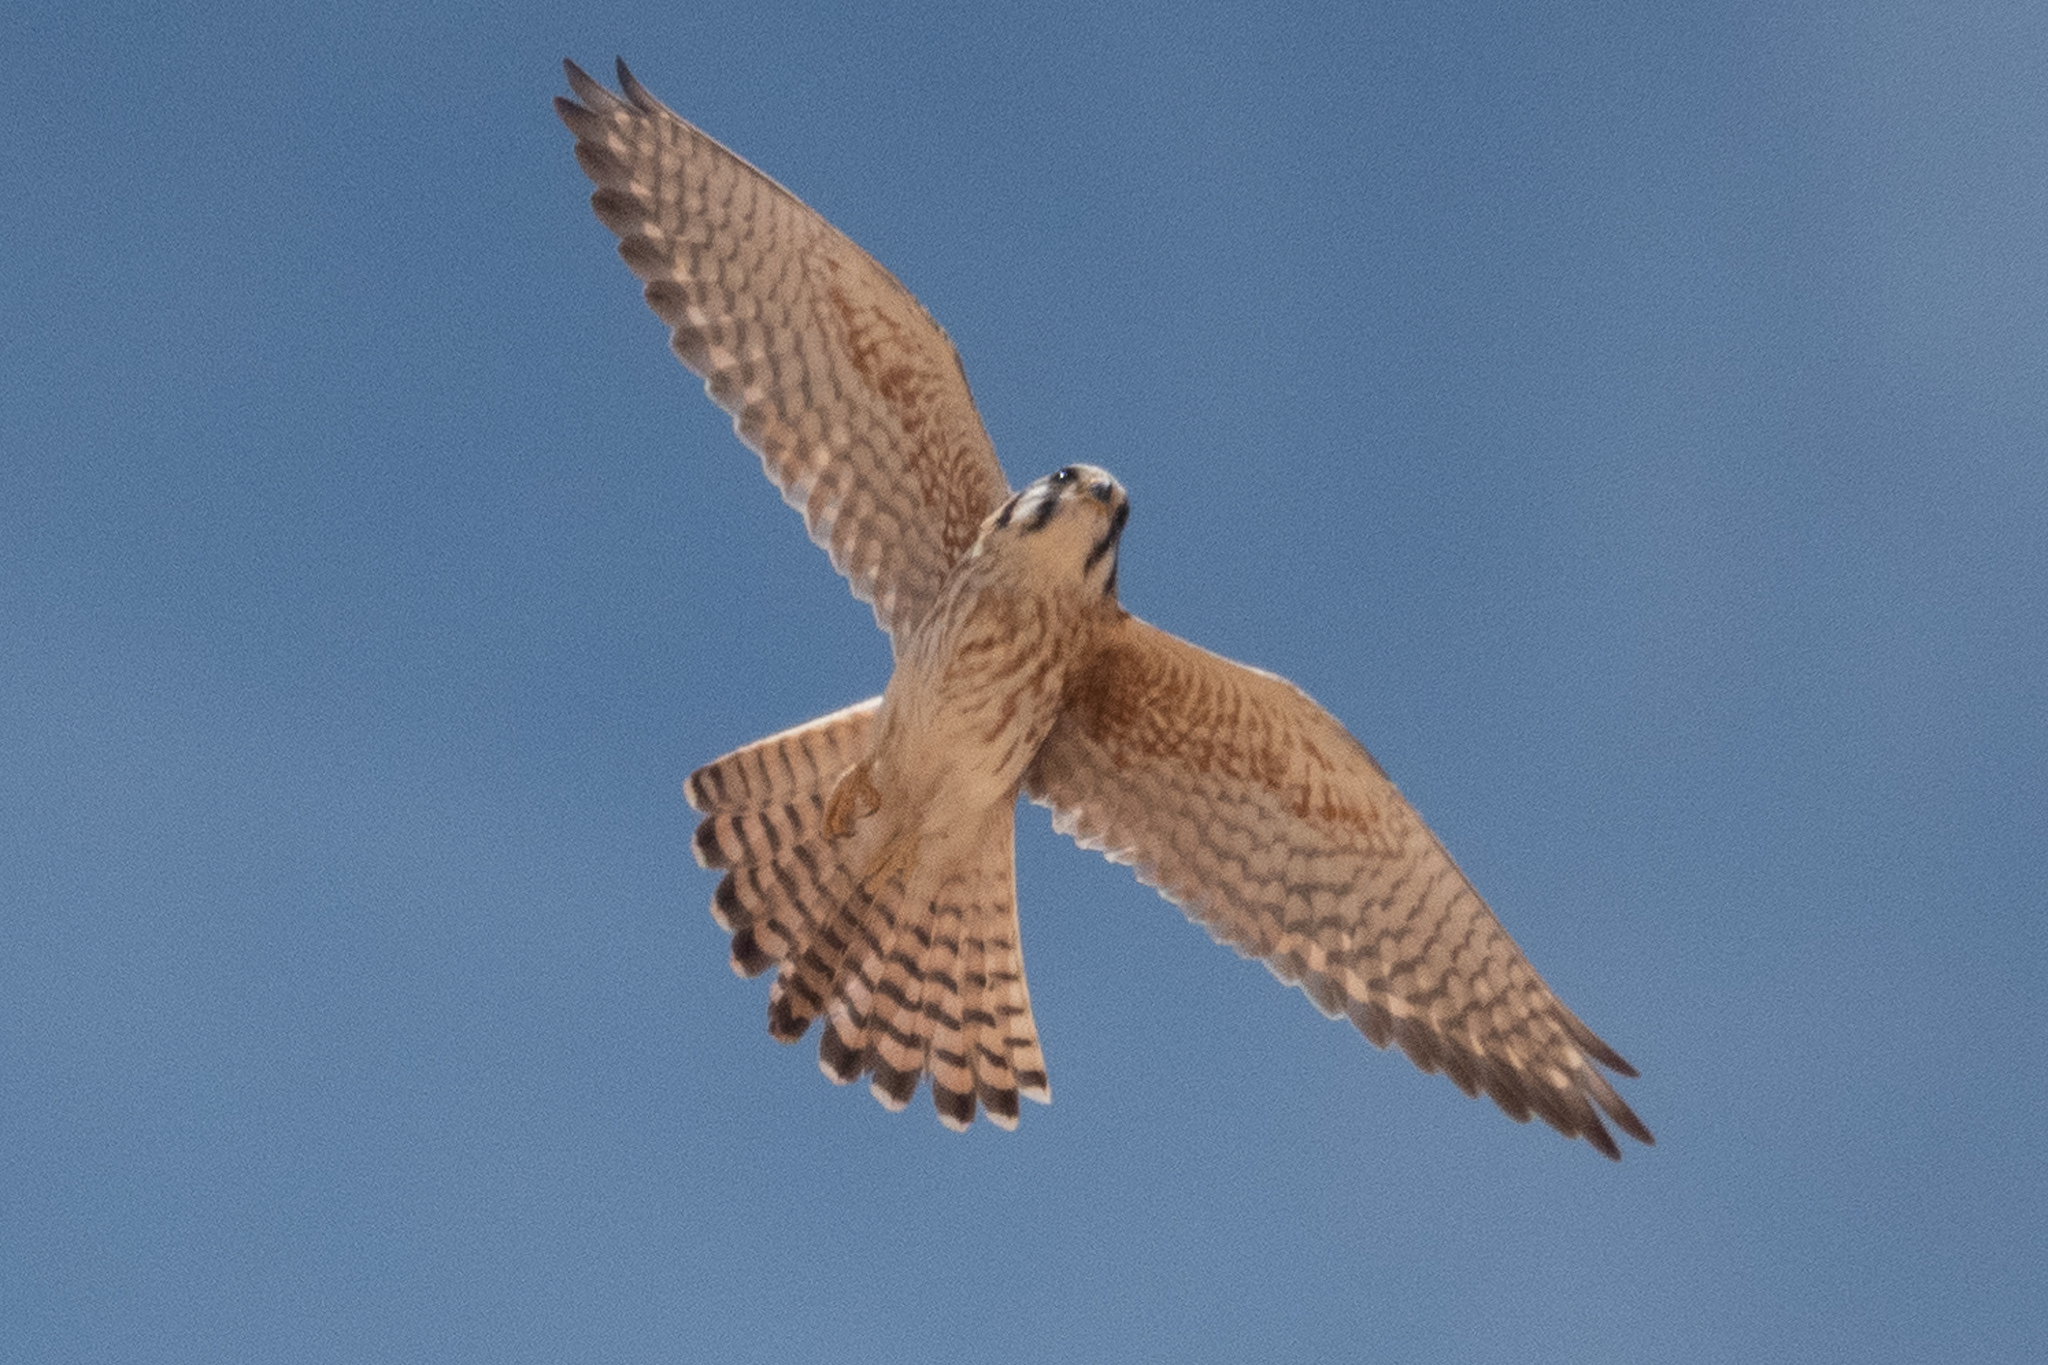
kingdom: Animalia
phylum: Chordata
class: Aves
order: Falconiformes
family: Falconidae
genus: Falco
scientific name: Falco sparverius
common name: American kestrel
